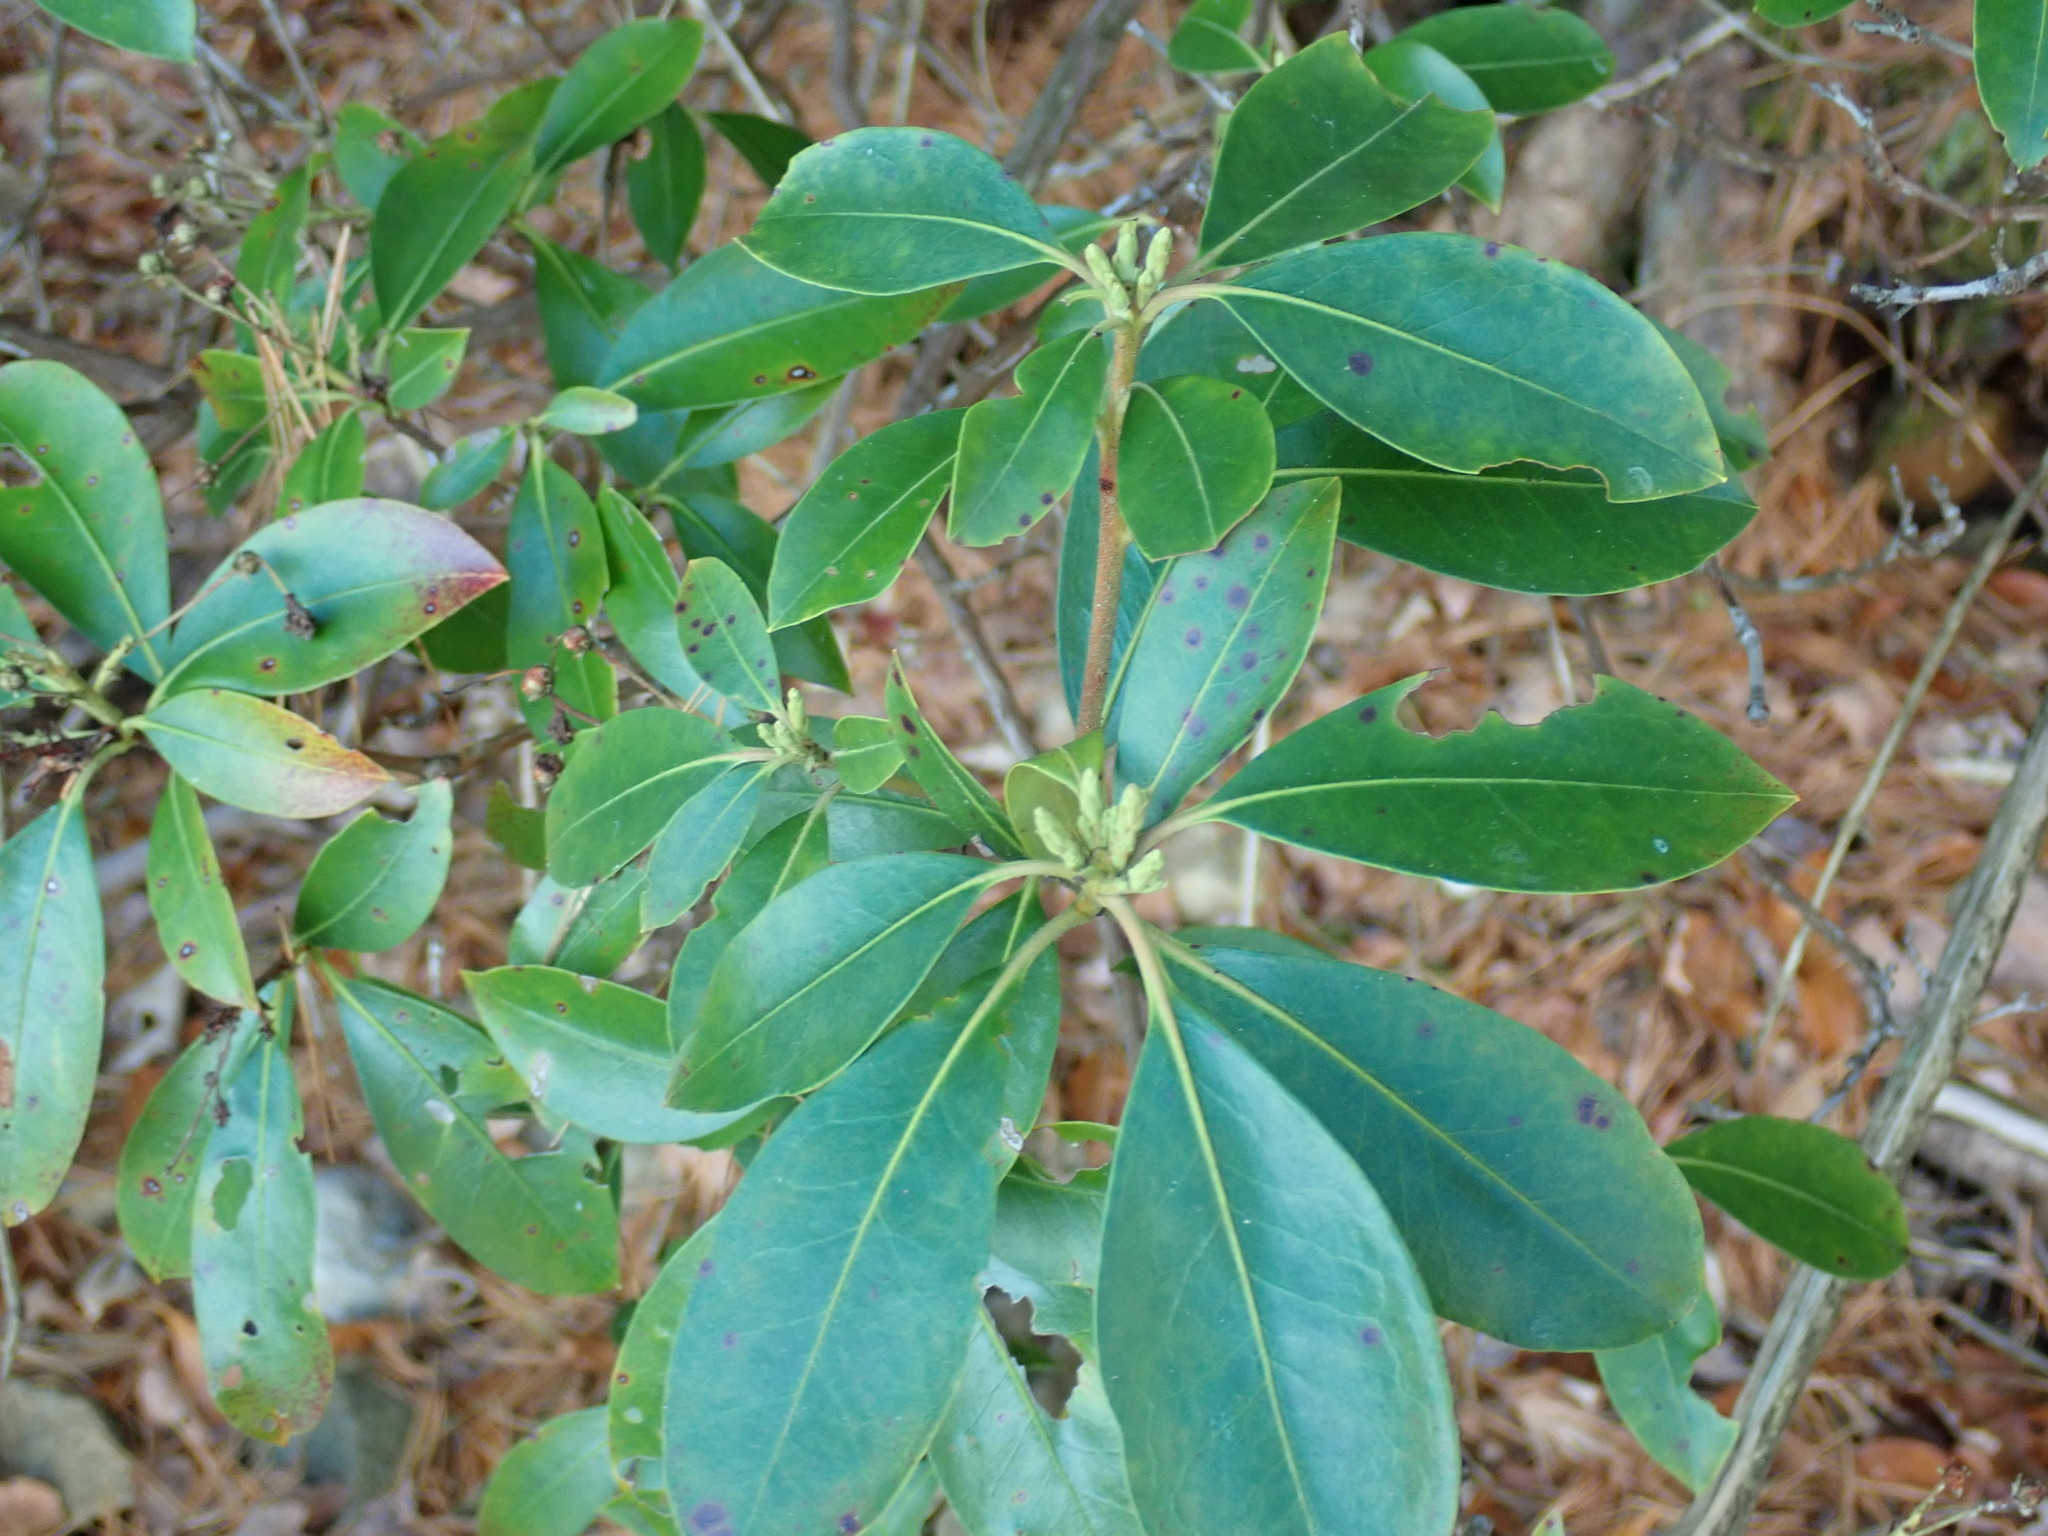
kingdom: Plantae
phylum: Tracheophyta
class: Magnoliopsida
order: Ericales
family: Ericaceae
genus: Kalmia
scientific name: Kalmia latifolia
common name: Mountain-laurel
